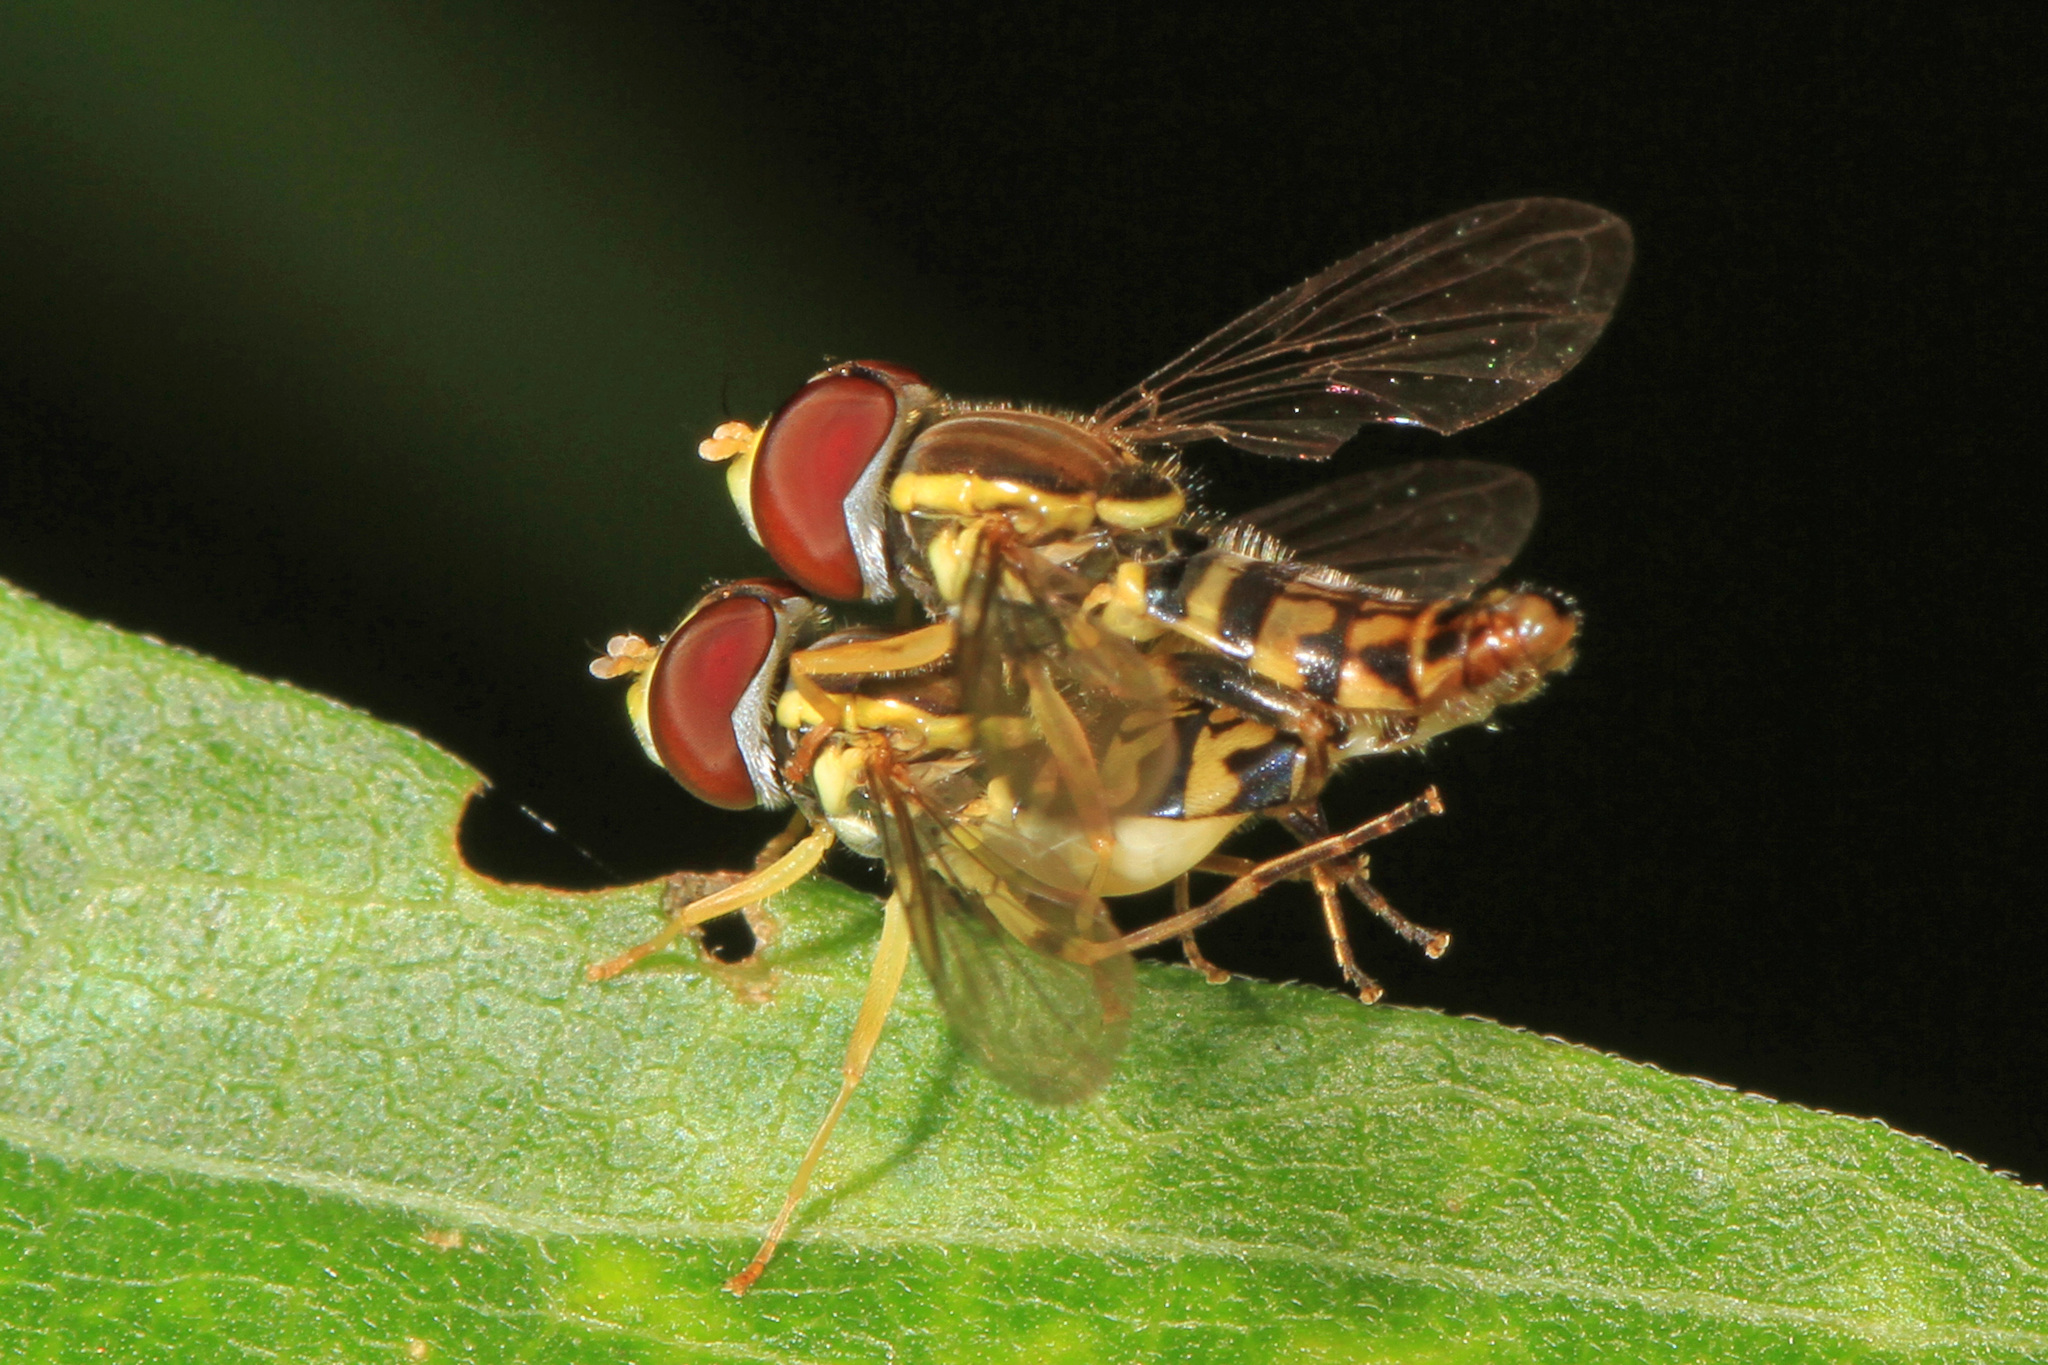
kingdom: Animalia
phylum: Arthropoda
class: Insecta
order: Diptera
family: Syrphidae
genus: Toxomerus
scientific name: Toxomerus geminatus
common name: Eastern calligrapher
